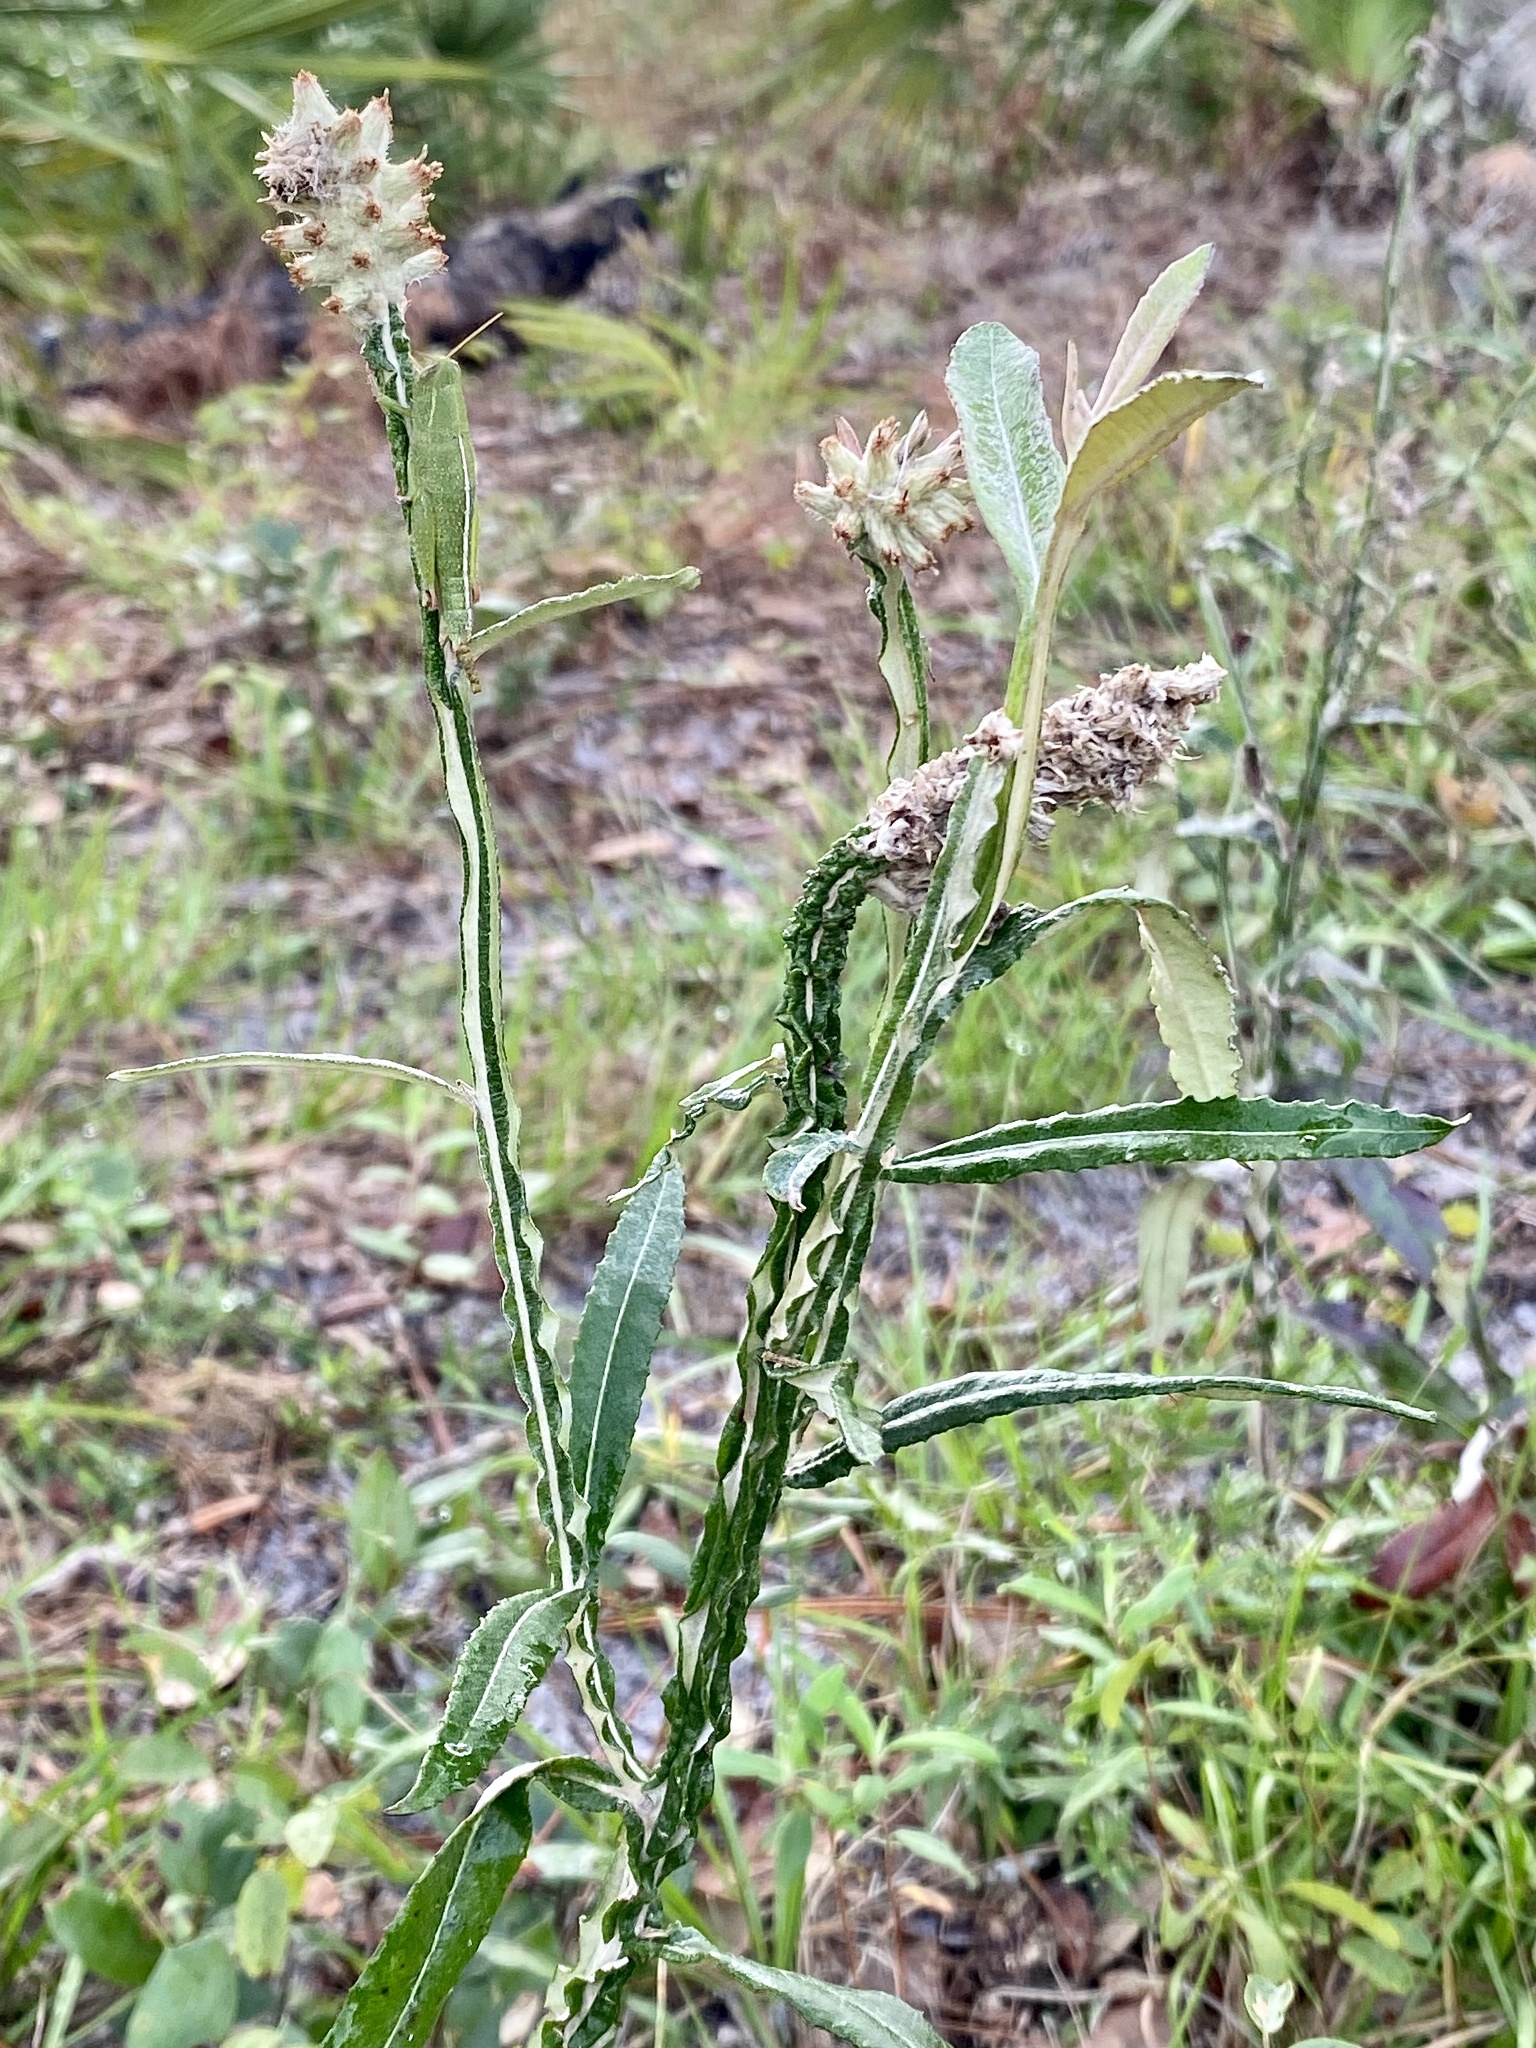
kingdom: Plantae
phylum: Tracheophyta
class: Magnoliopsida
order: Asterales
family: Asteraceae
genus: Pterocaulon
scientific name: Pterocaulon pycnostachyum
